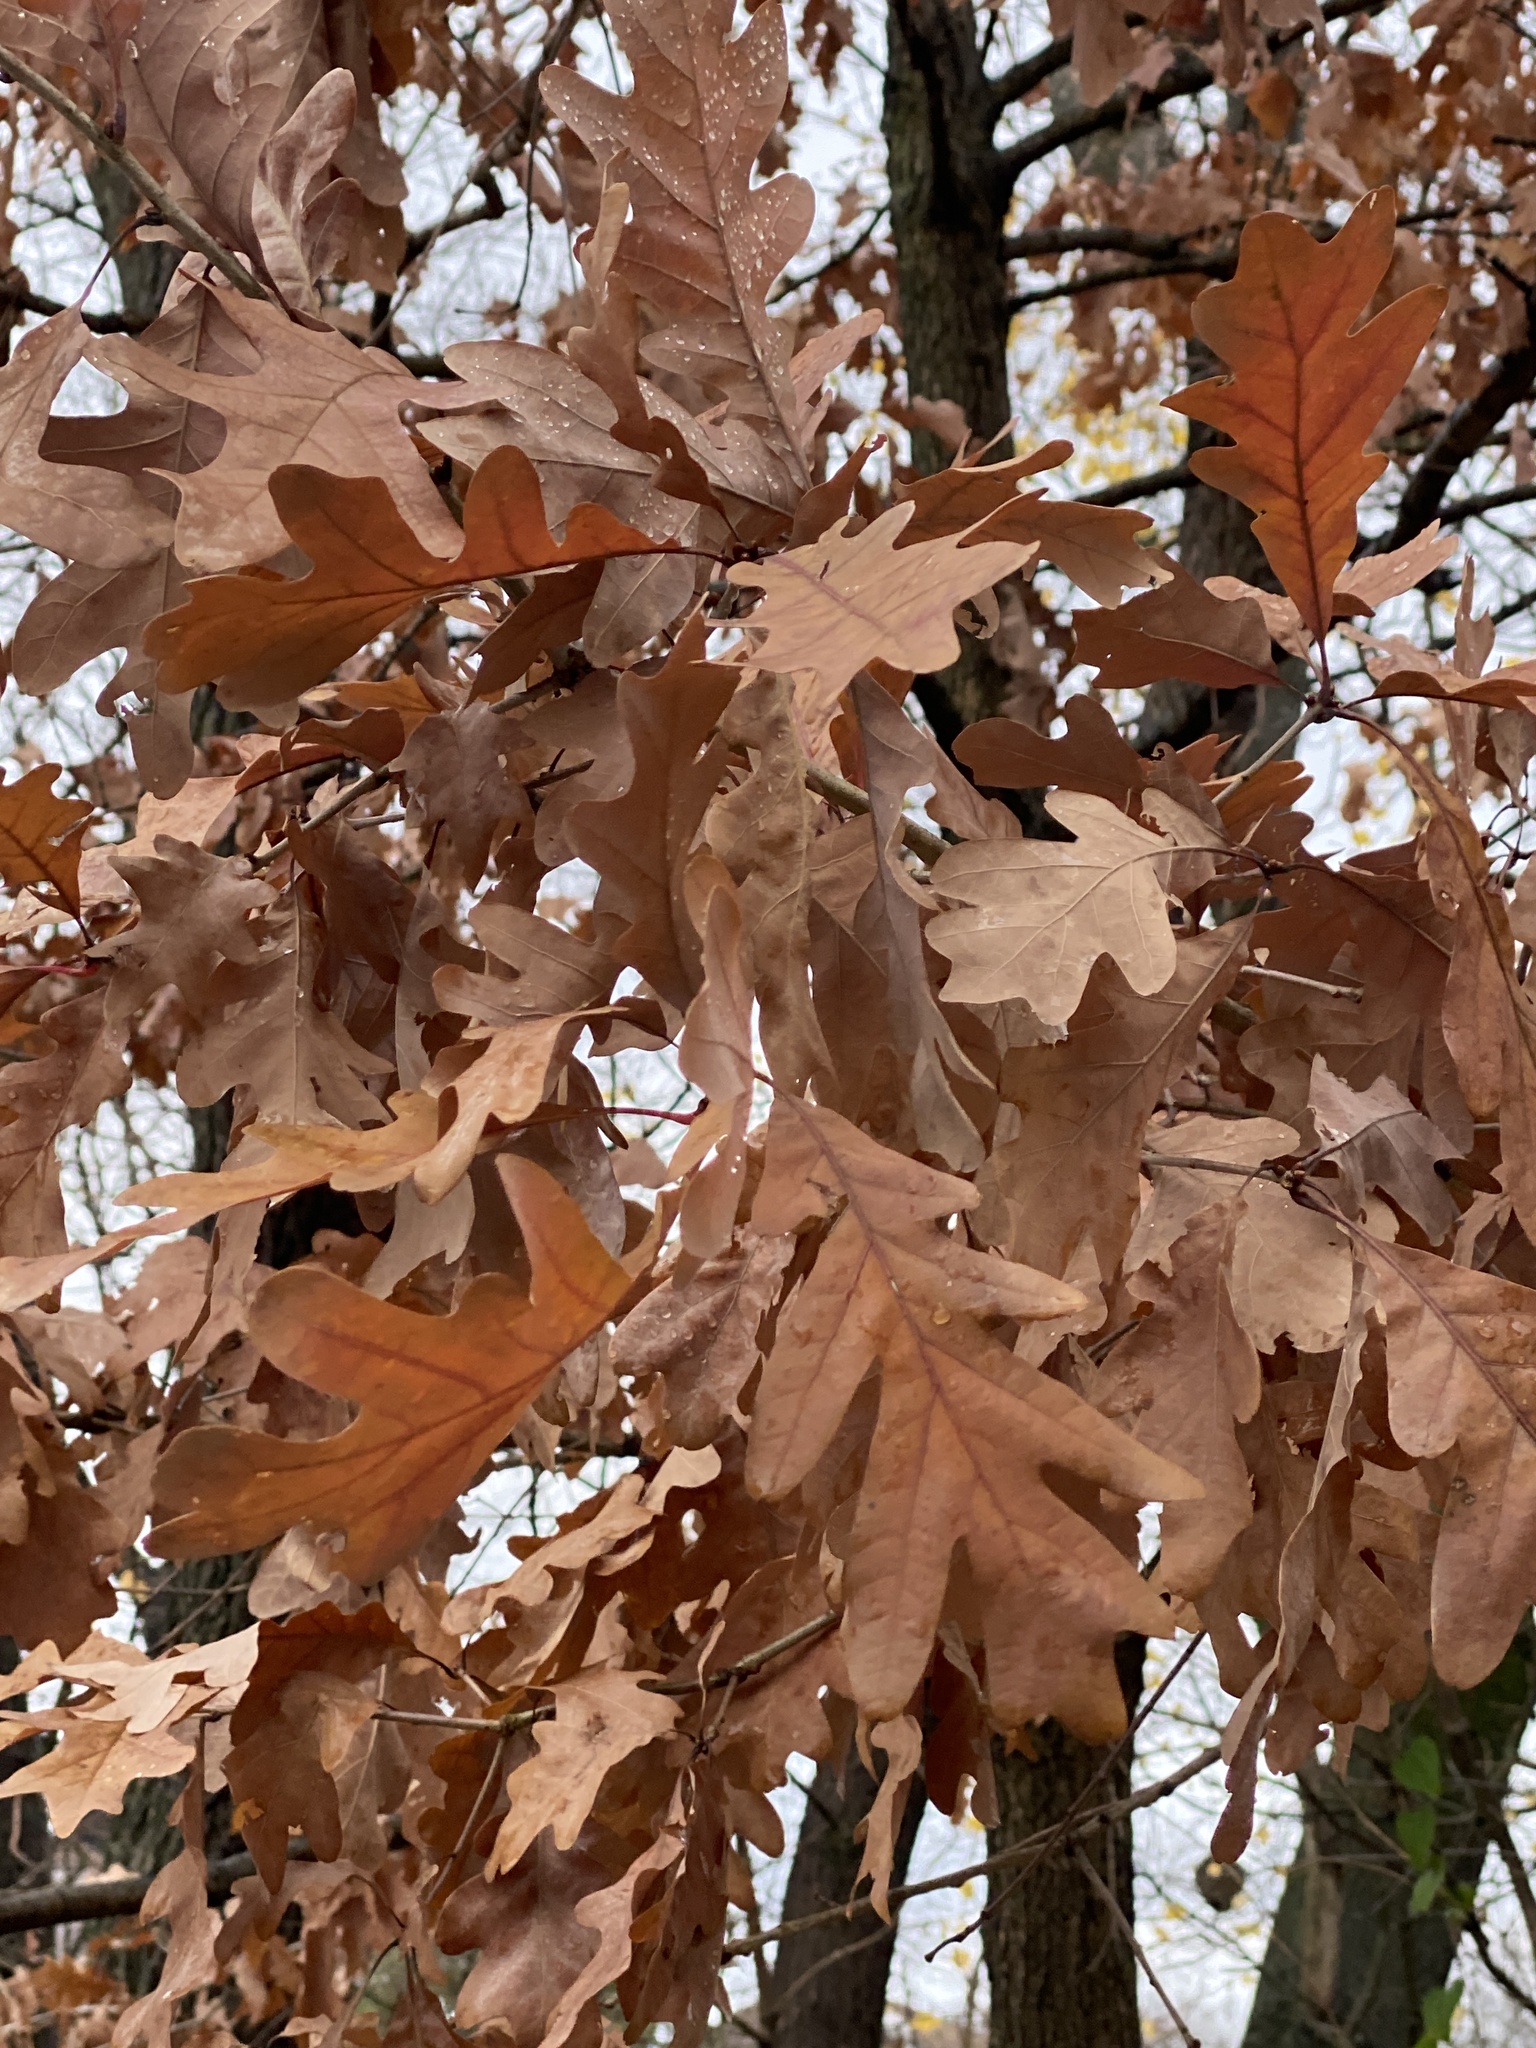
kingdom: Plantae
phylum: Tracheophyta
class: Magnoliopsida
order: Fagales
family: Fagaceae
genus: Quercus
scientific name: Quercus alba
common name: White oak
